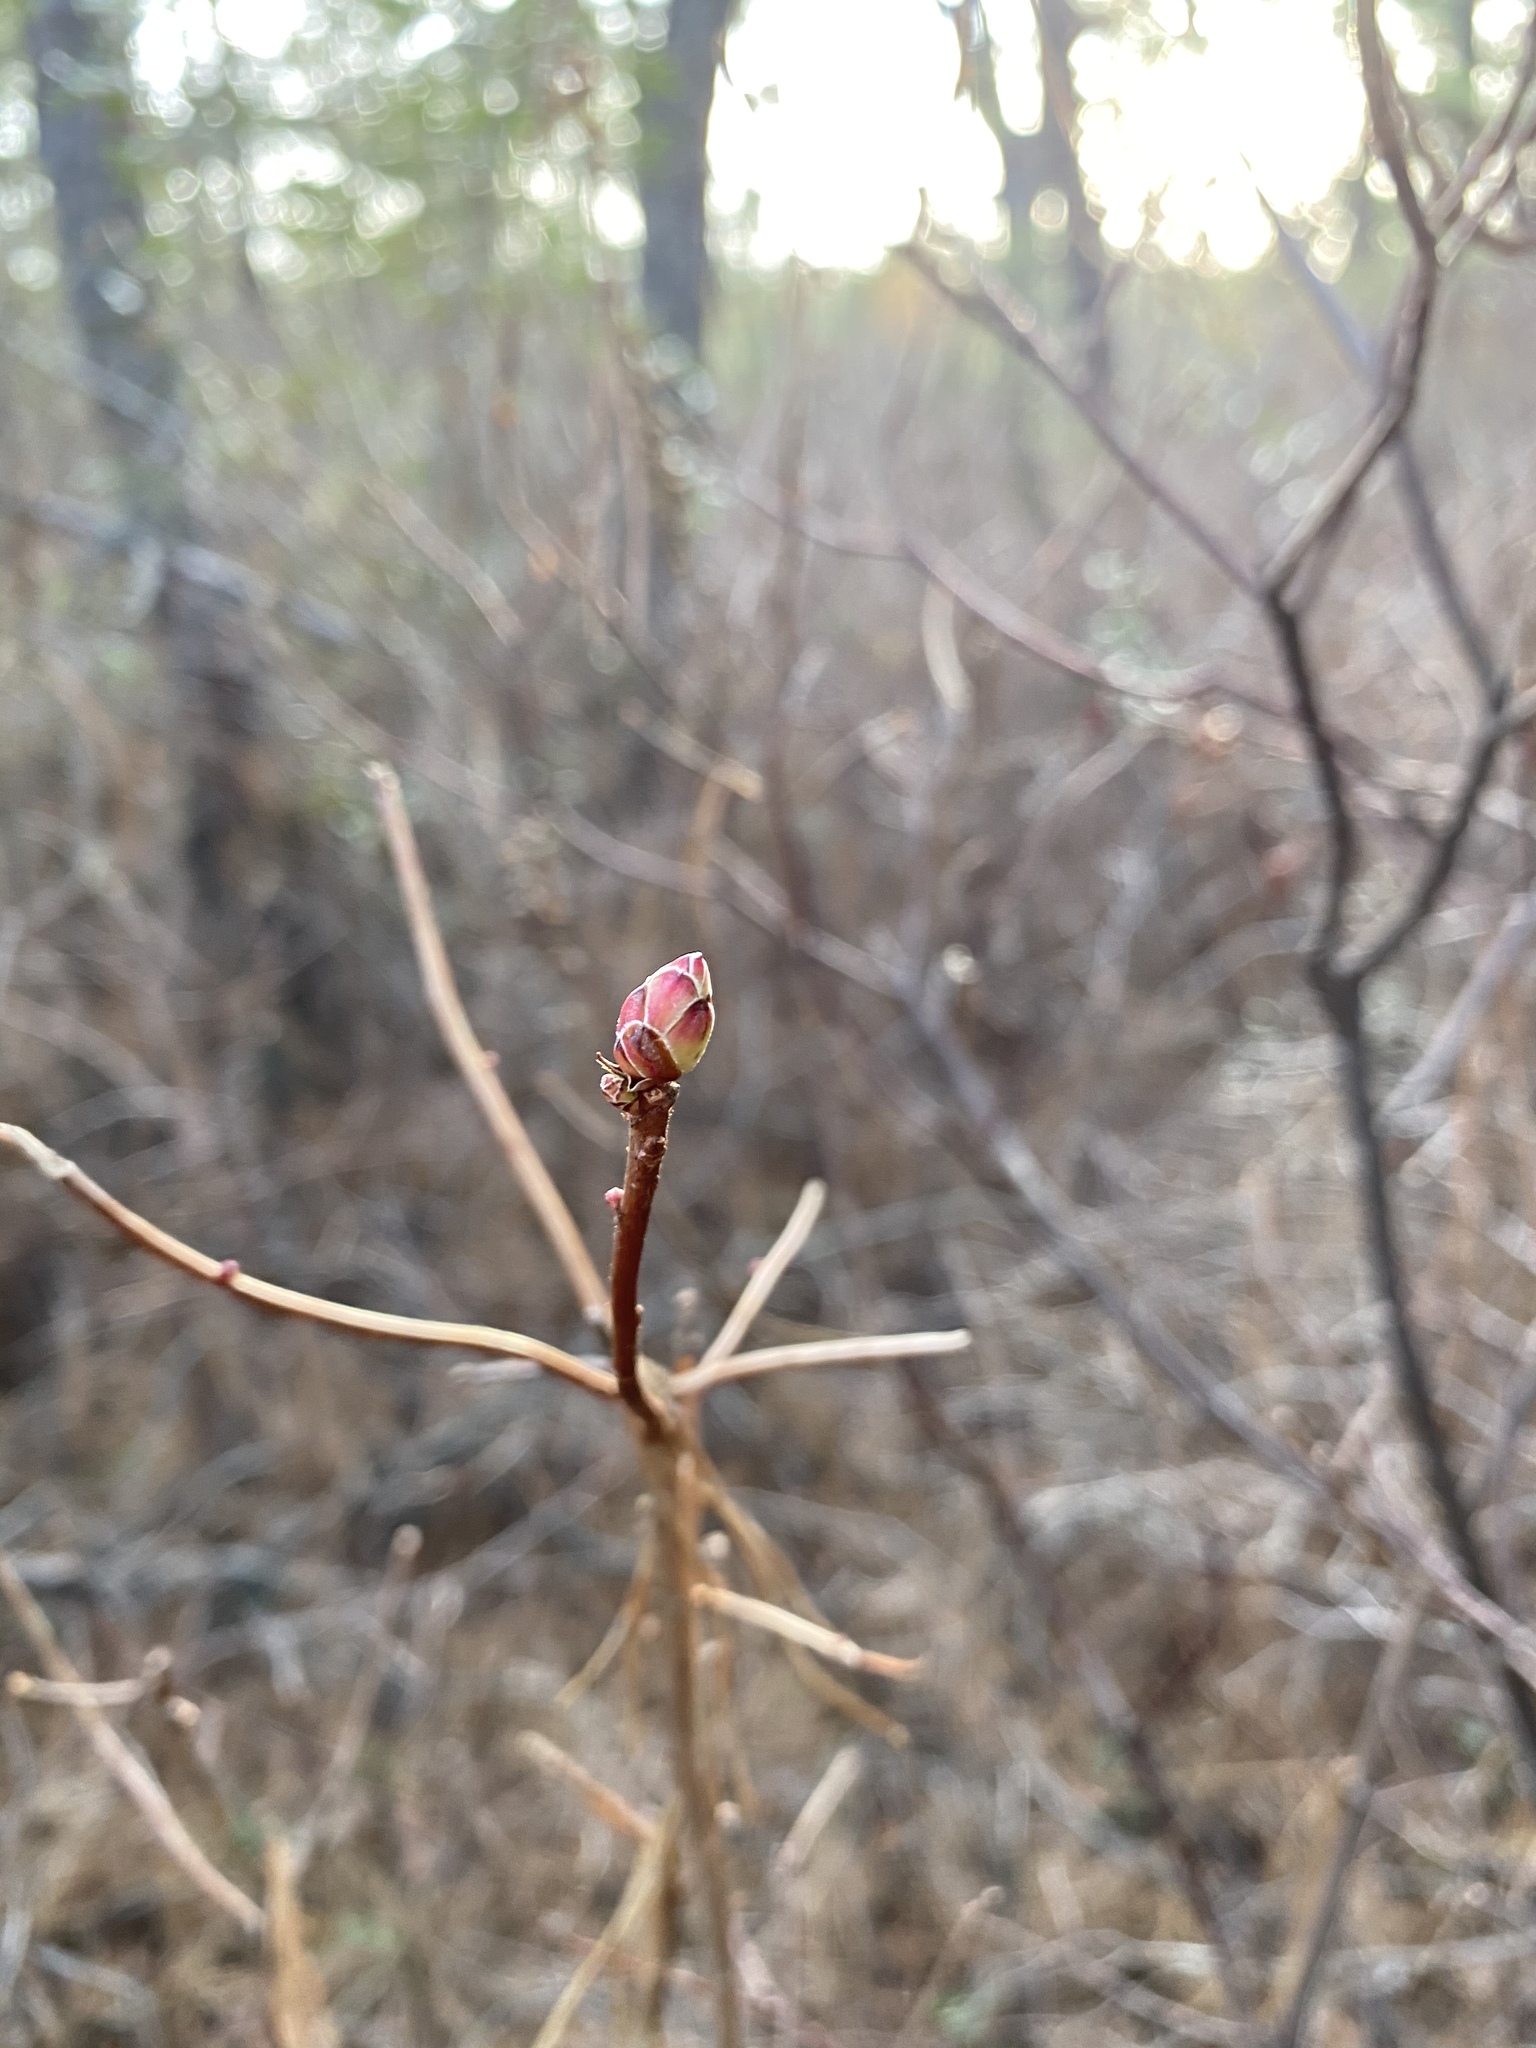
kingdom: Plantae
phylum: Tracheophyta
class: Magnoliopsida
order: Ericales
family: Ericaceae
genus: Rhododendron
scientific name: Rhododendron viscosum
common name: Clammy azalea
